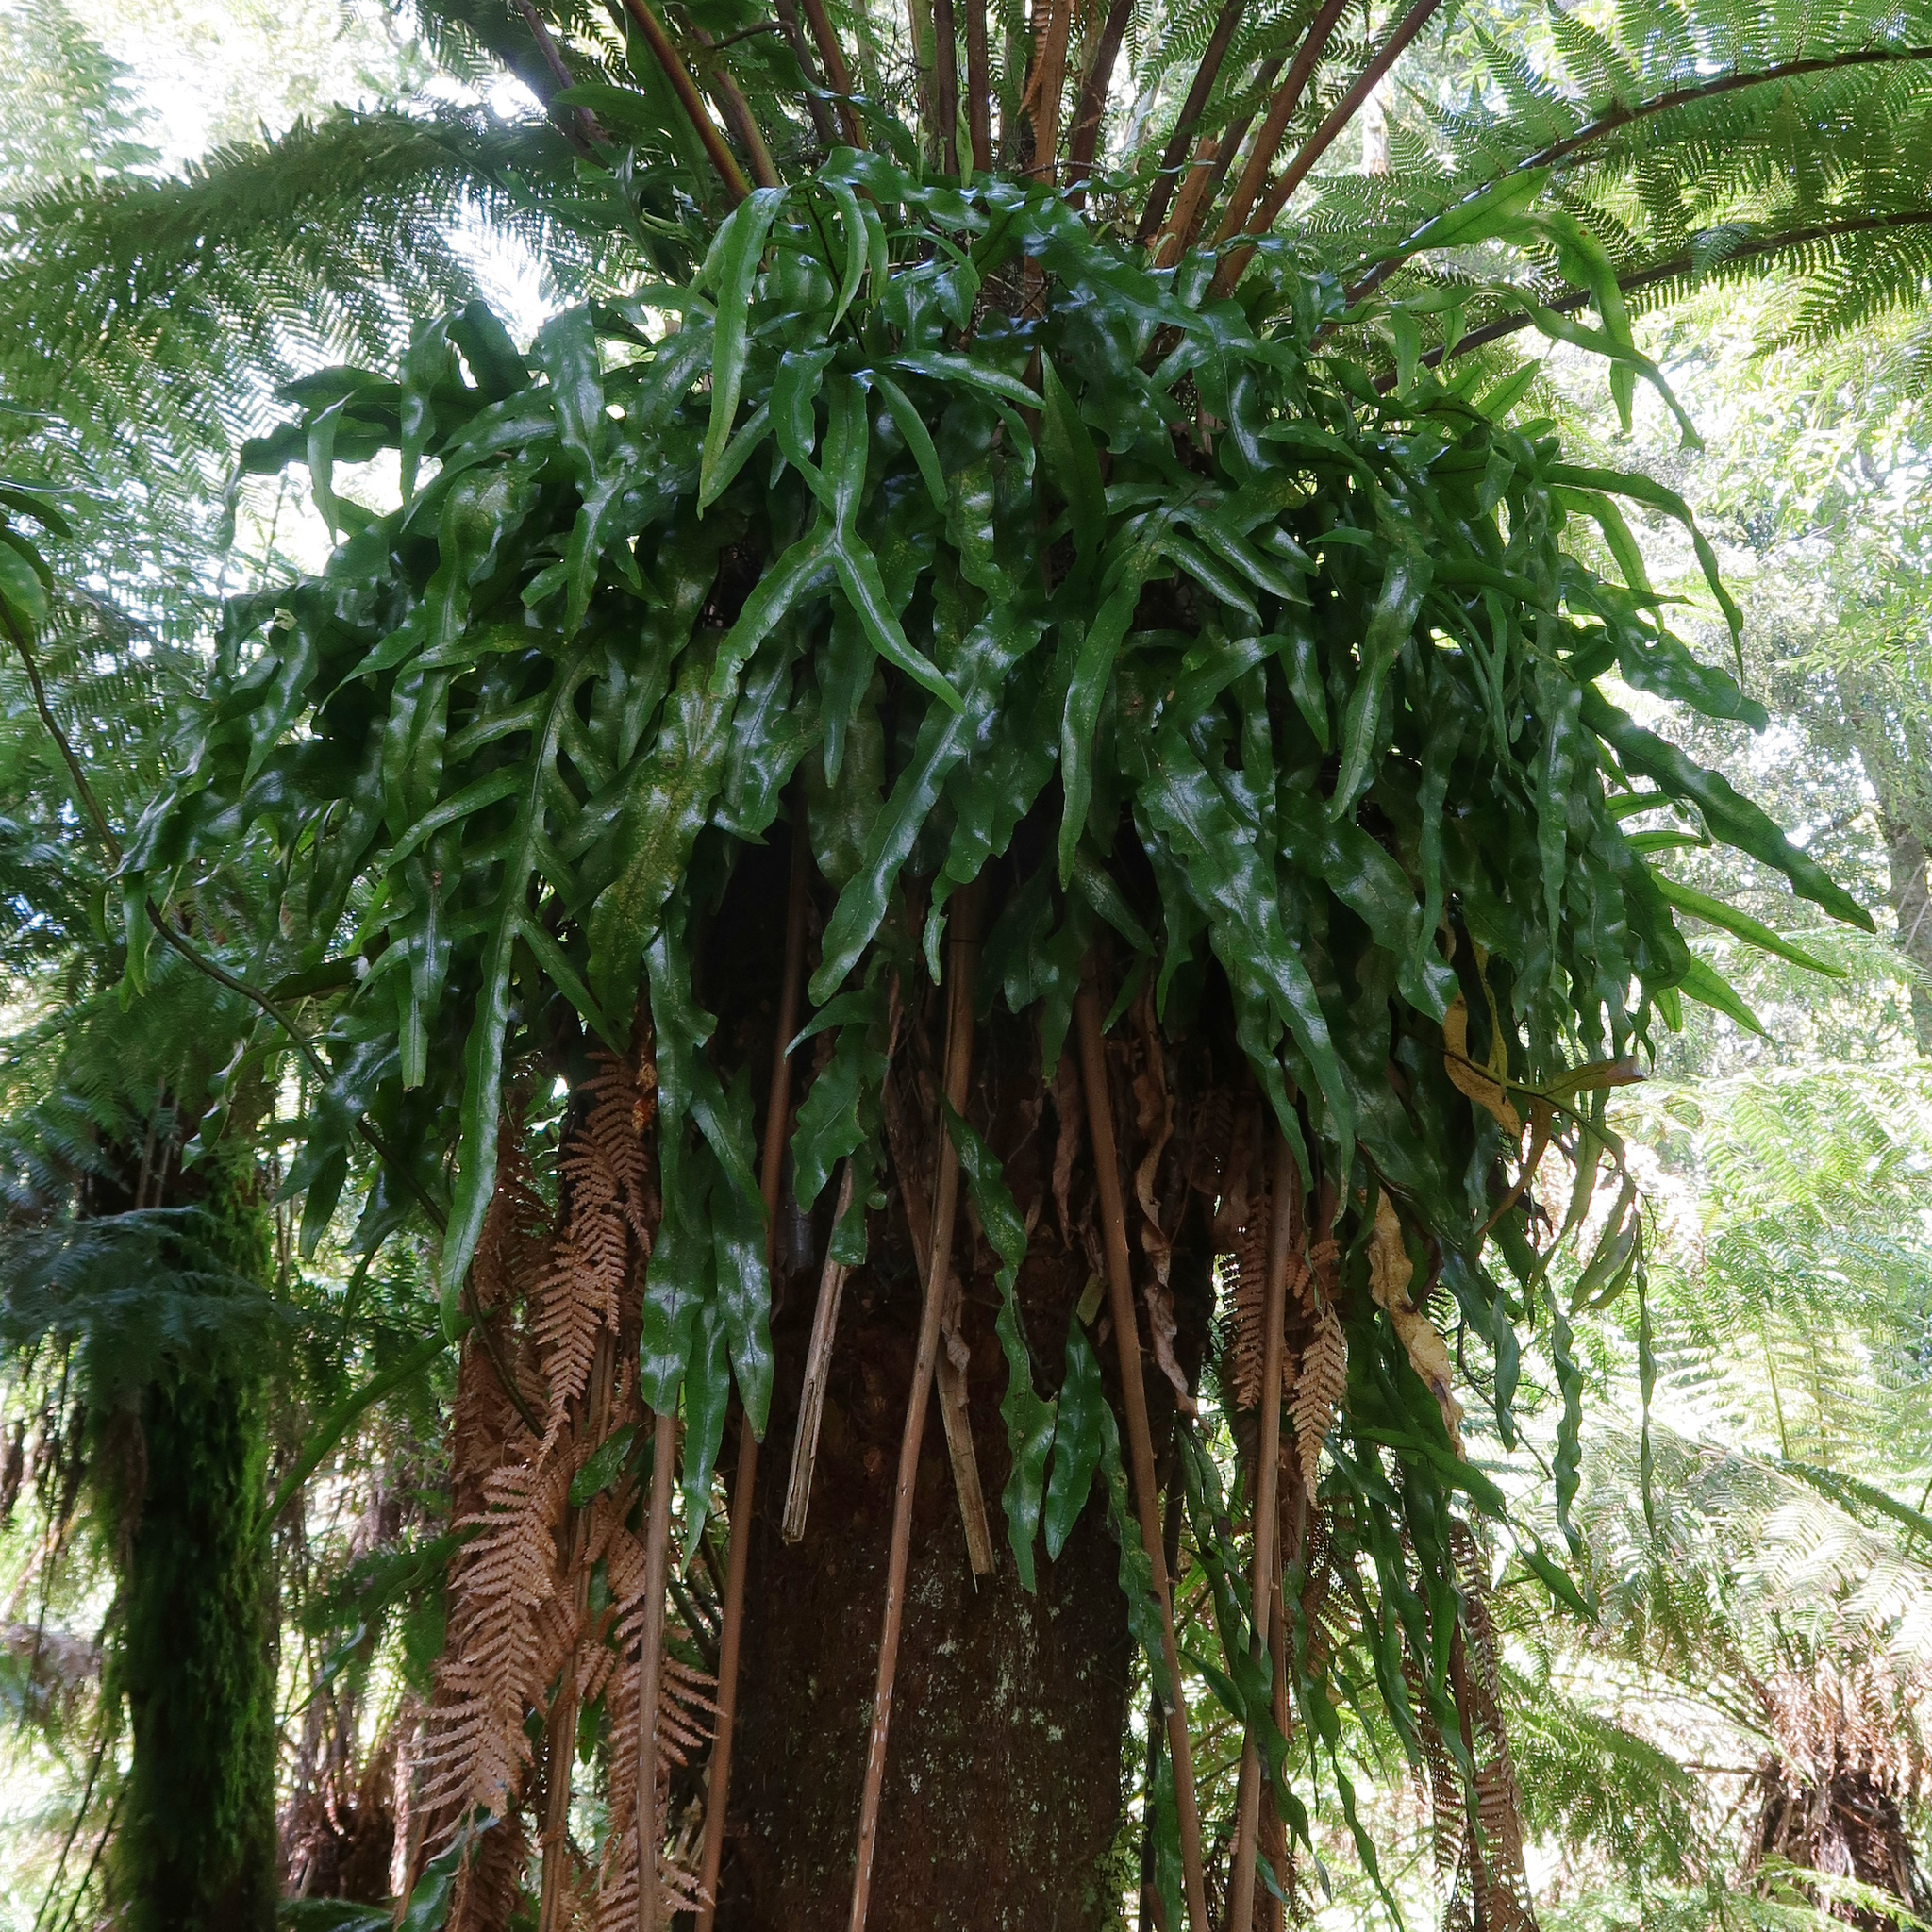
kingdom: Plantae
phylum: Tracheophyta
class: Polypodiopsida
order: Polypodiales
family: Polypodiaceae
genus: Lecanopteris
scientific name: Lecanopteris pustulata
